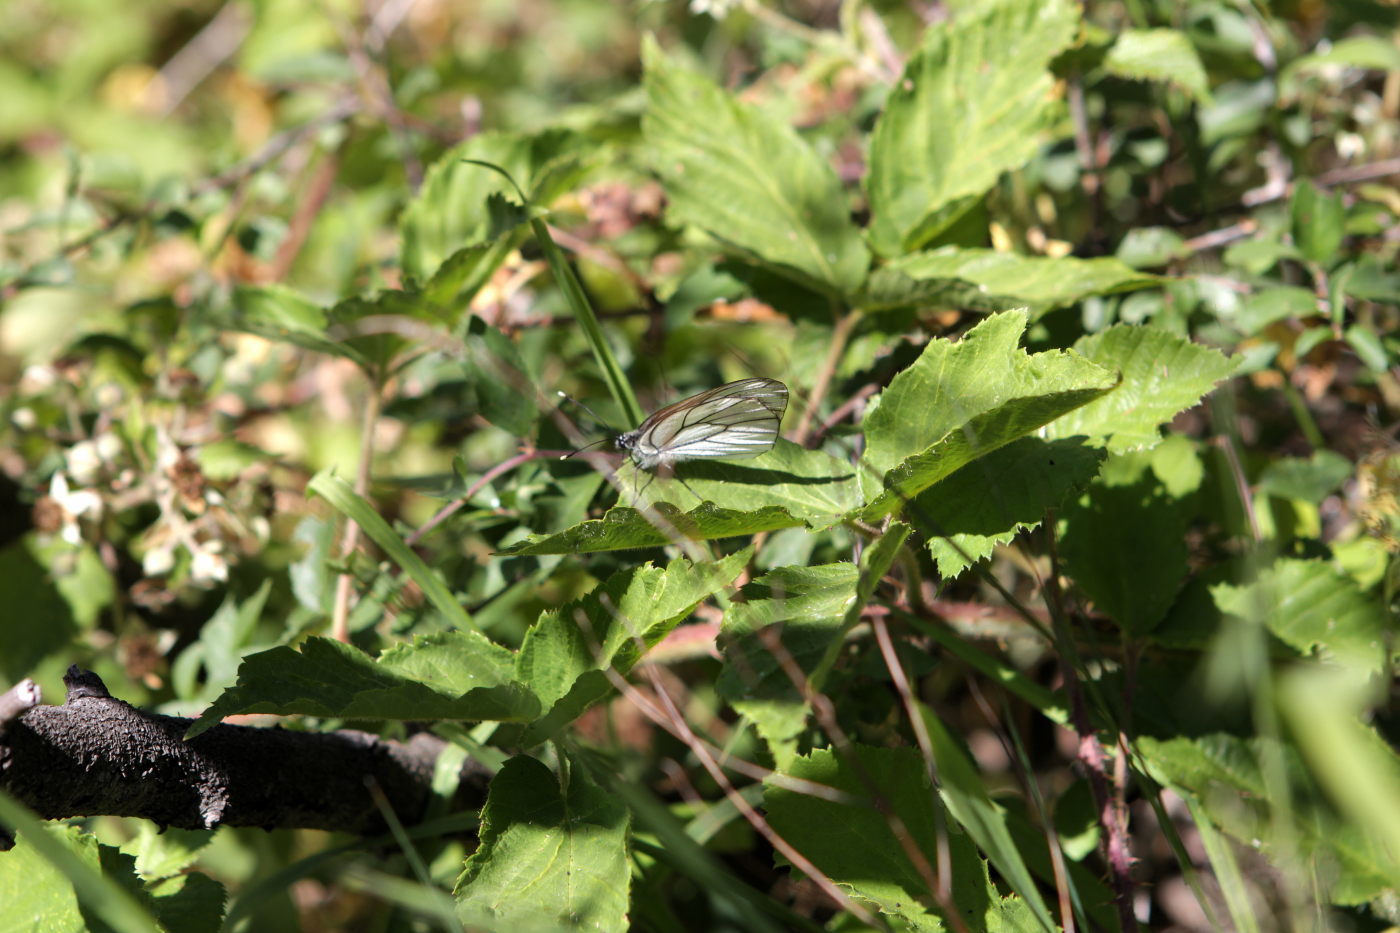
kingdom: Animalia
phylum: Arthropoda
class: Insecta
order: Lepidoptera
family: Pieridae
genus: Aporia
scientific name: Aporia crataegi
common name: Black-veined white
